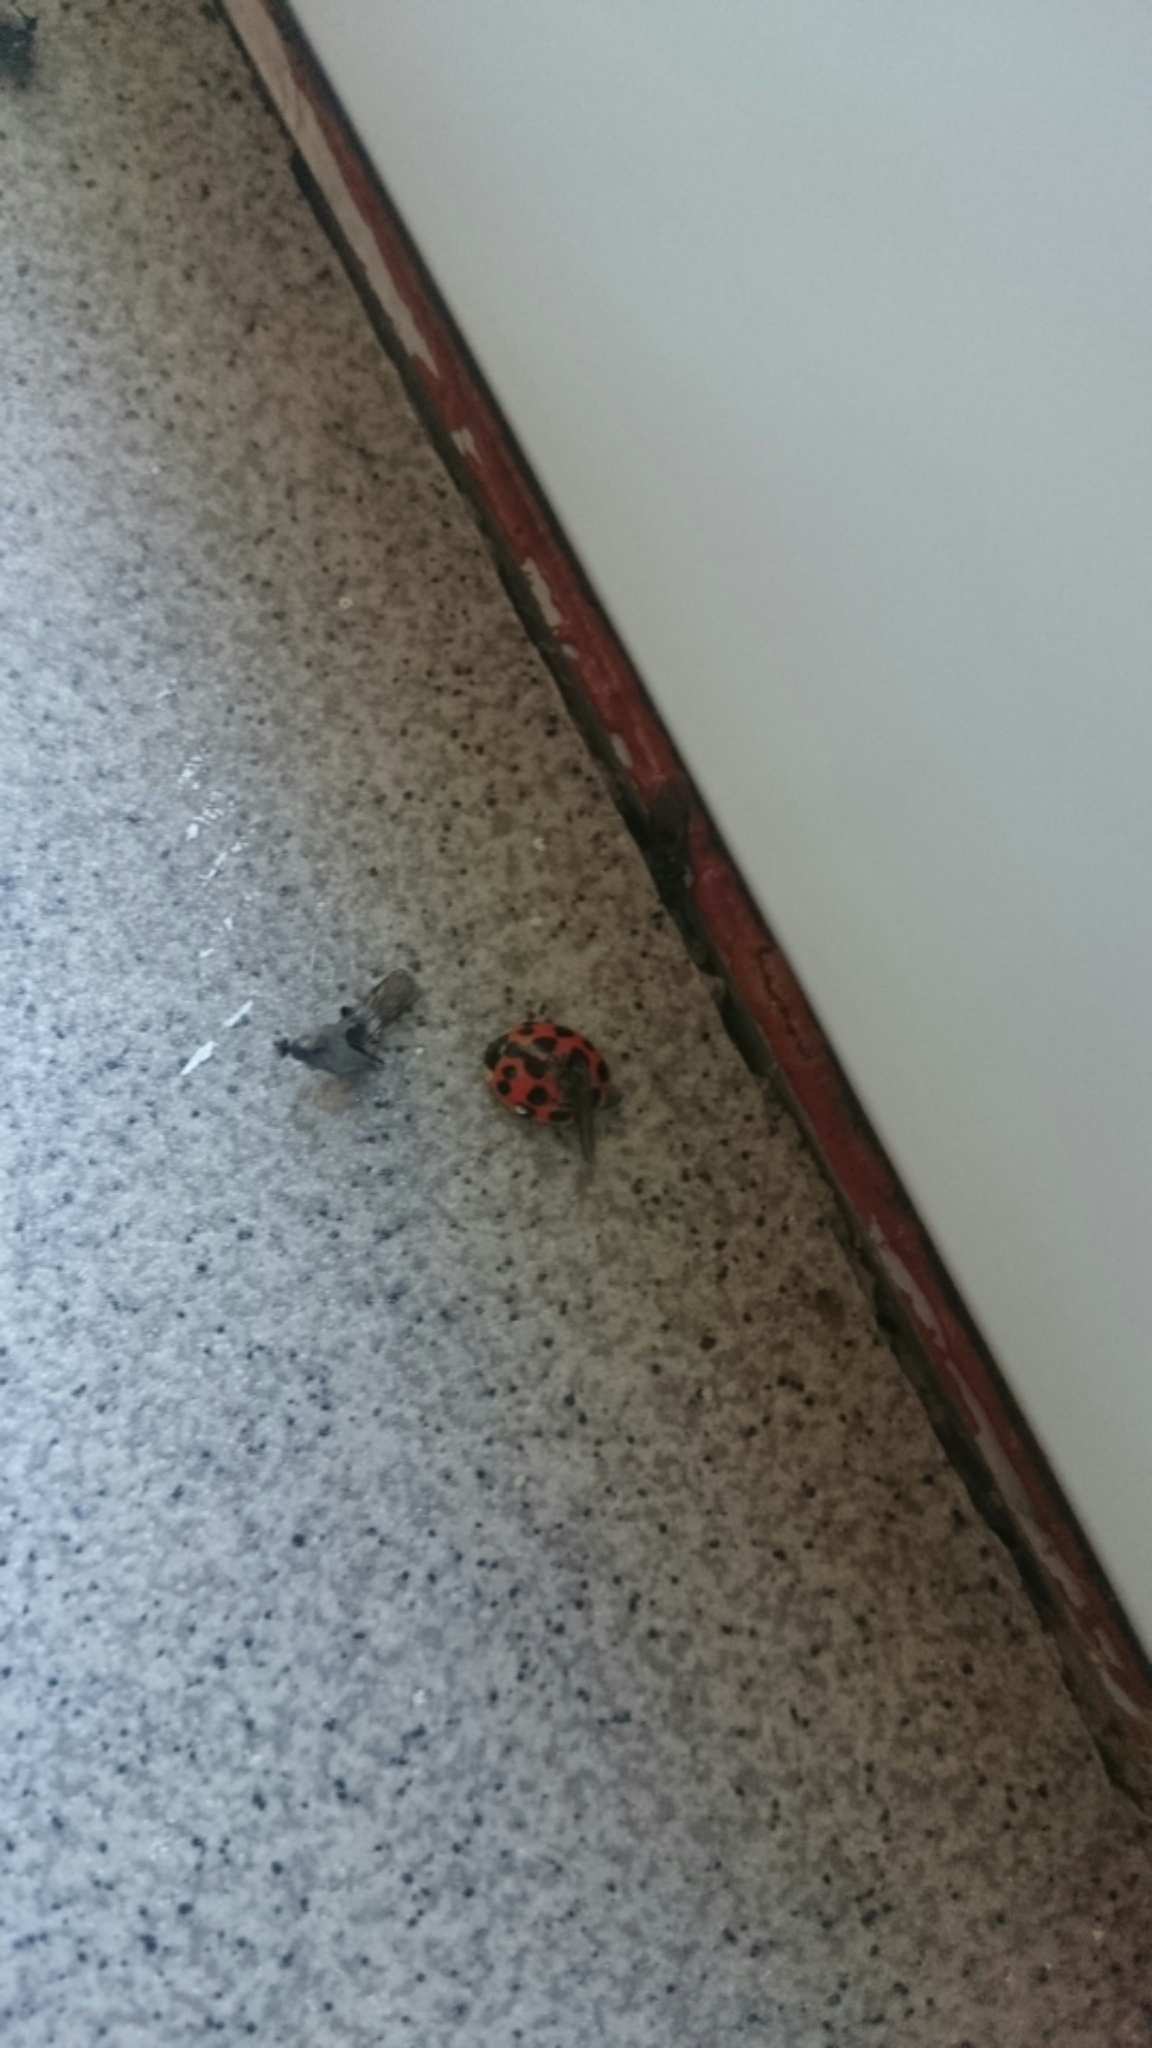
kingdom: Animalia
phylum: Arthropoda
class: Insecta
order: Coleoptera
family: Coccinellidae
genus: Harmonia
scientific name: Harmonia axyridis
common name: Harlequin ladybird
